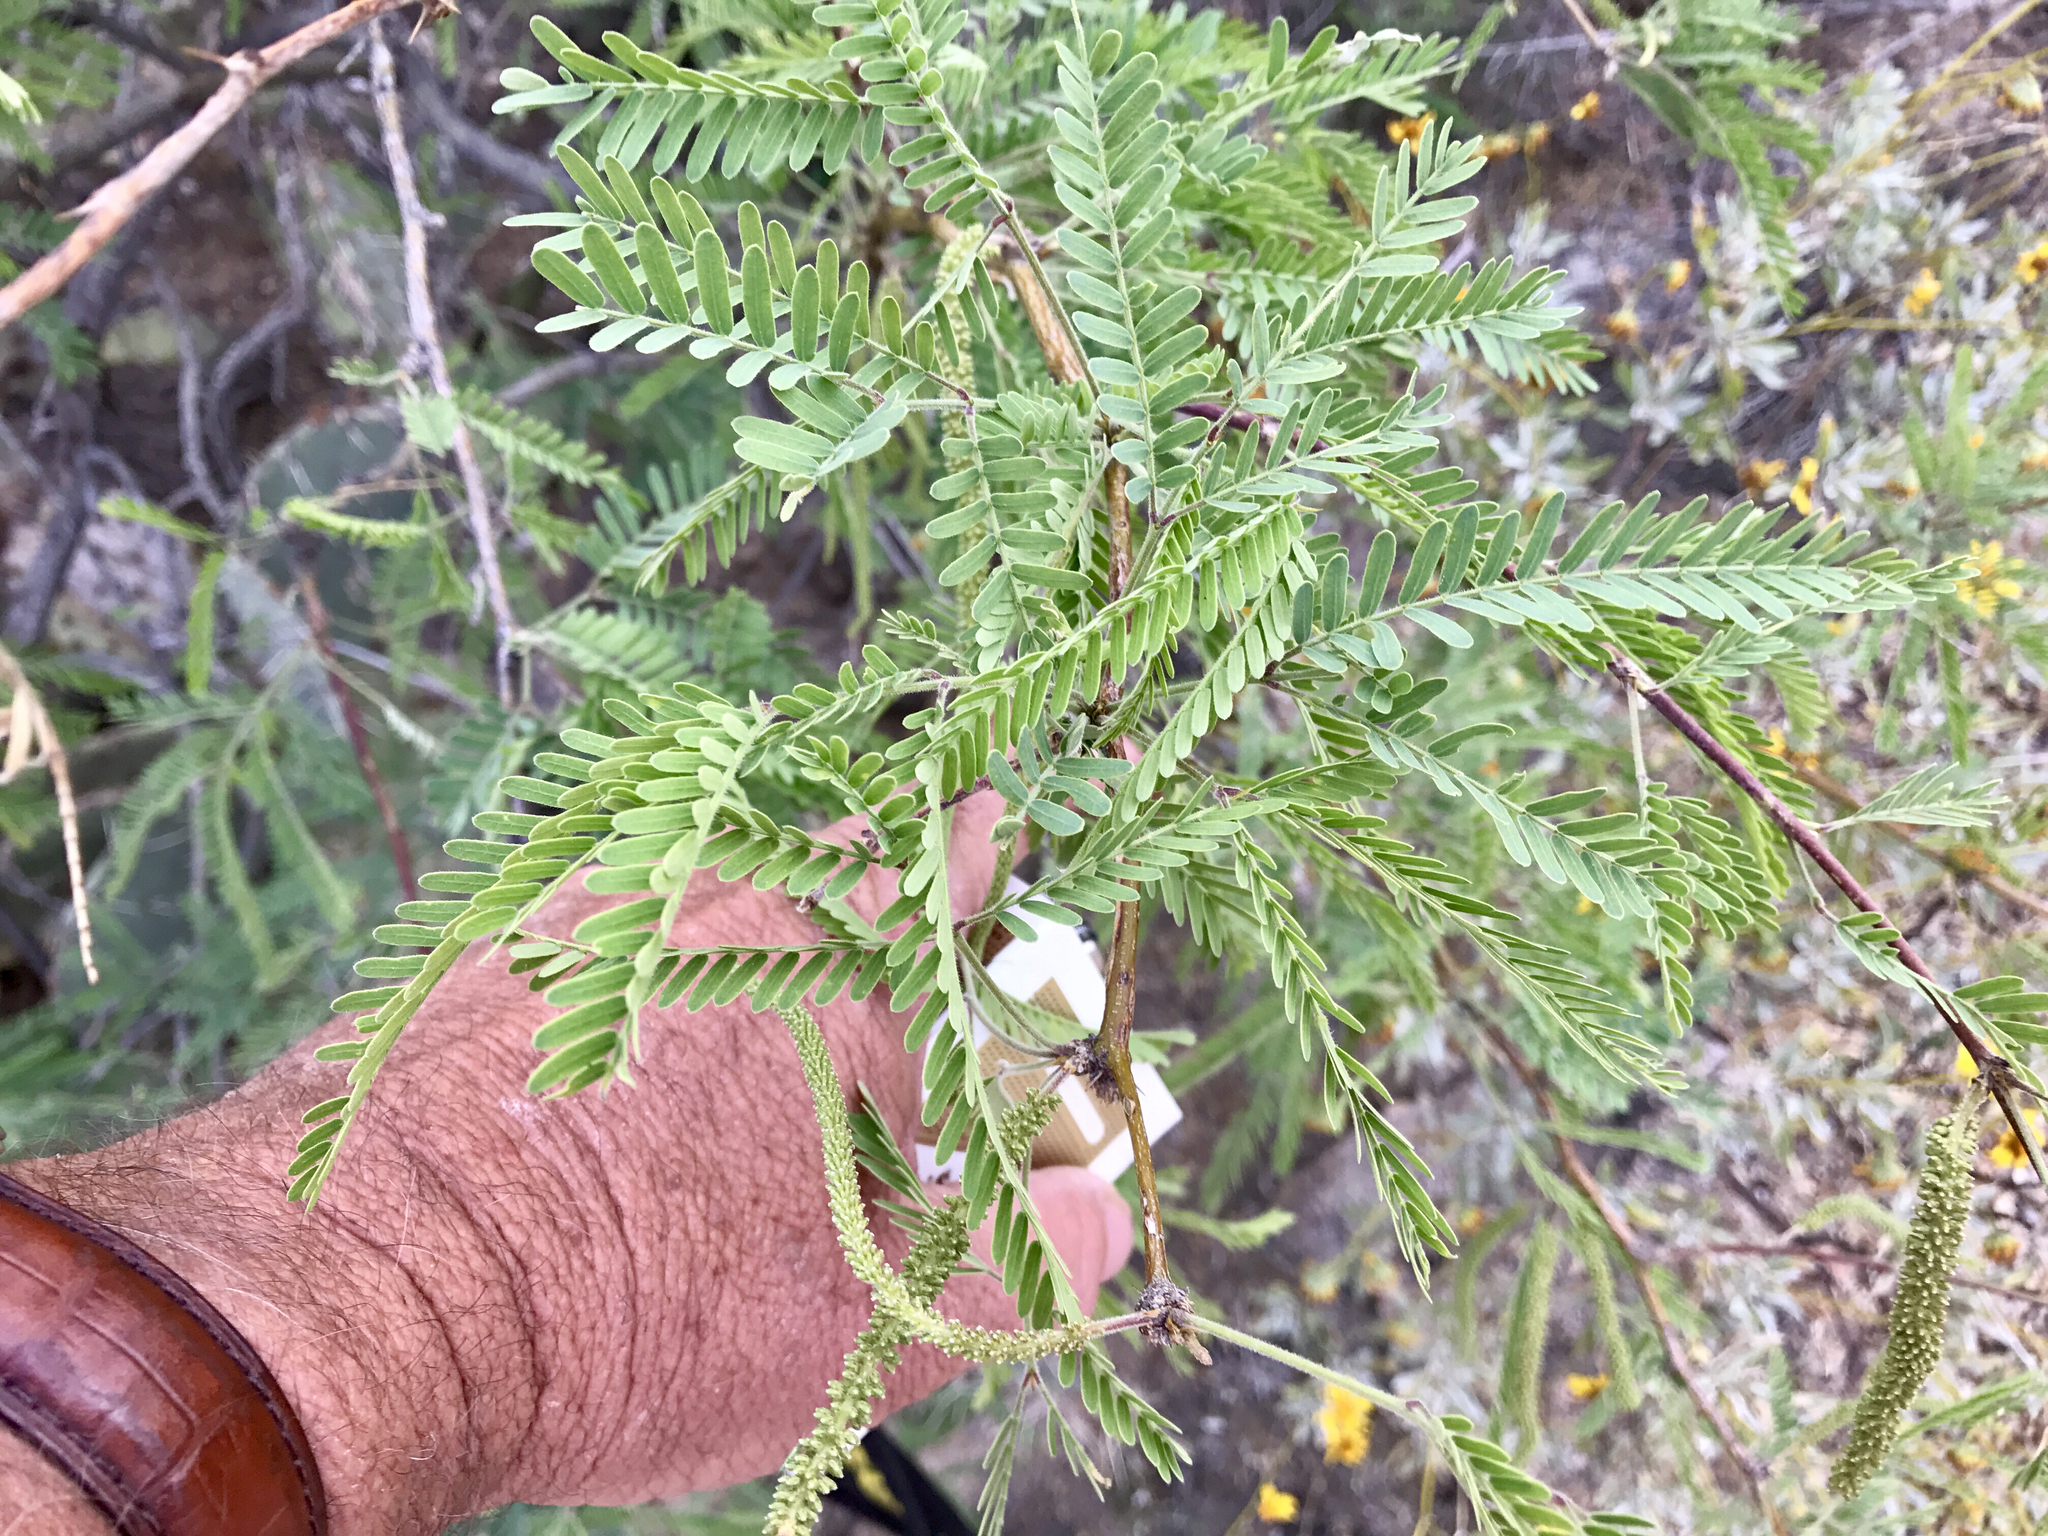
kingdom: Plantae
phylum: Tracheophyta
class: Magnoliopsida
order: Fabales
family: Fabaceae
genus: Prosopis
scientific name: Prosopis velutina
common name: Velvet mesquite
